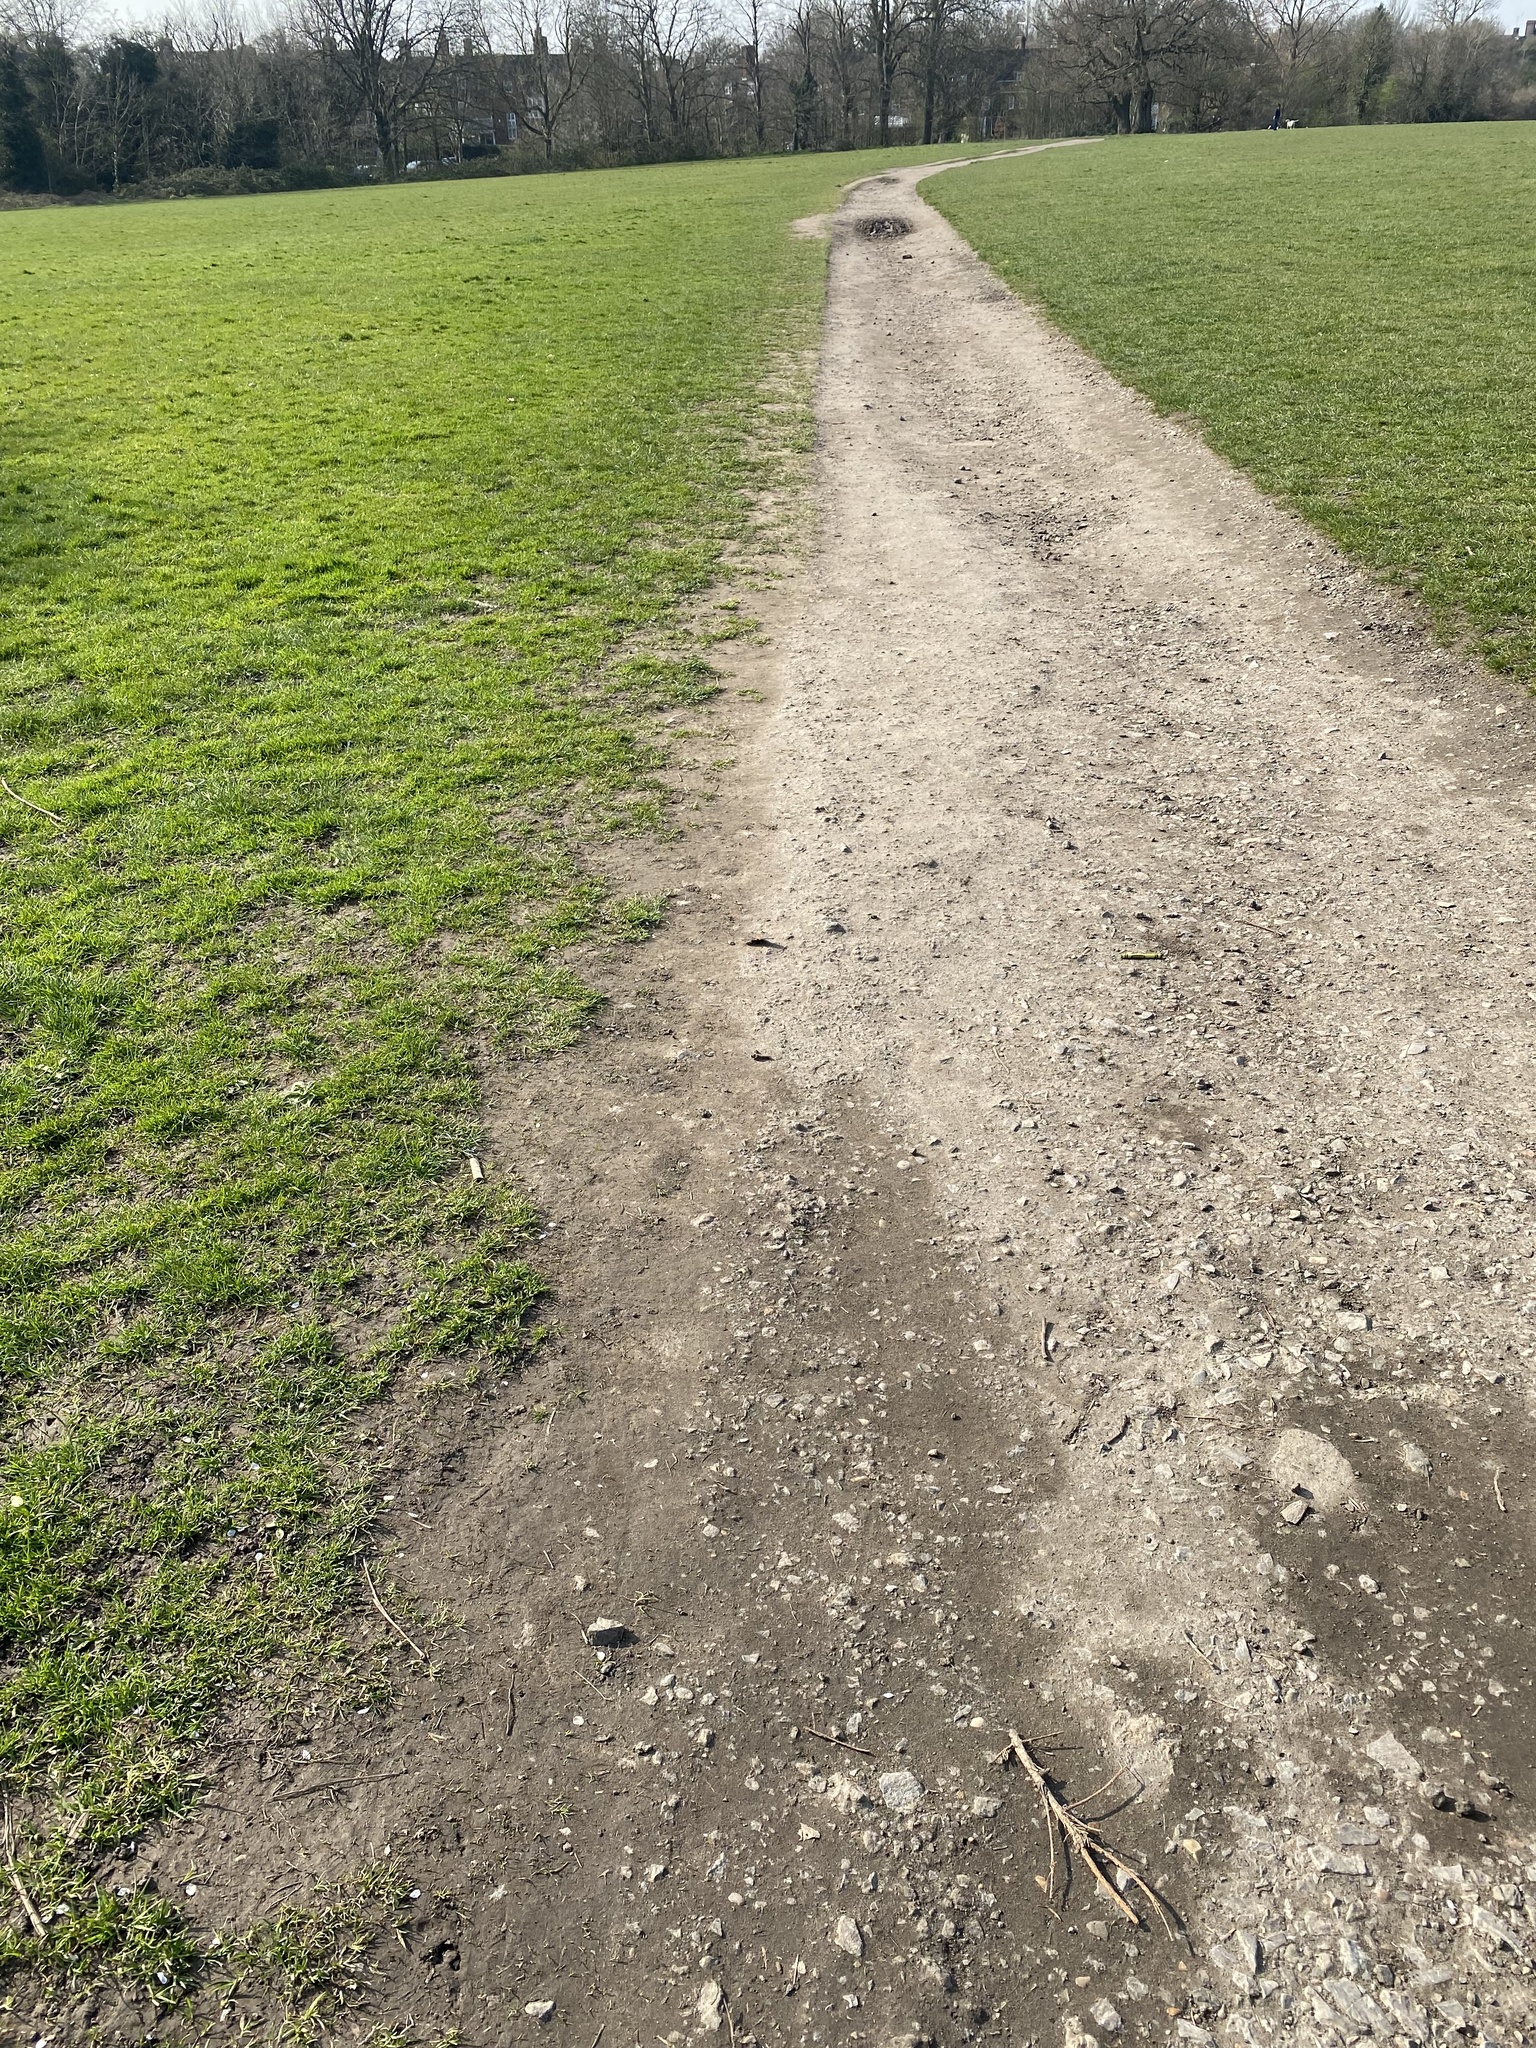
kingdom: Animalia
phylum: Arthropoda
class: Insecta
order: Lepidoptera
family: Nymphalidae
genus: Aglais
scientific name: Aglais io
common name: Peacock
